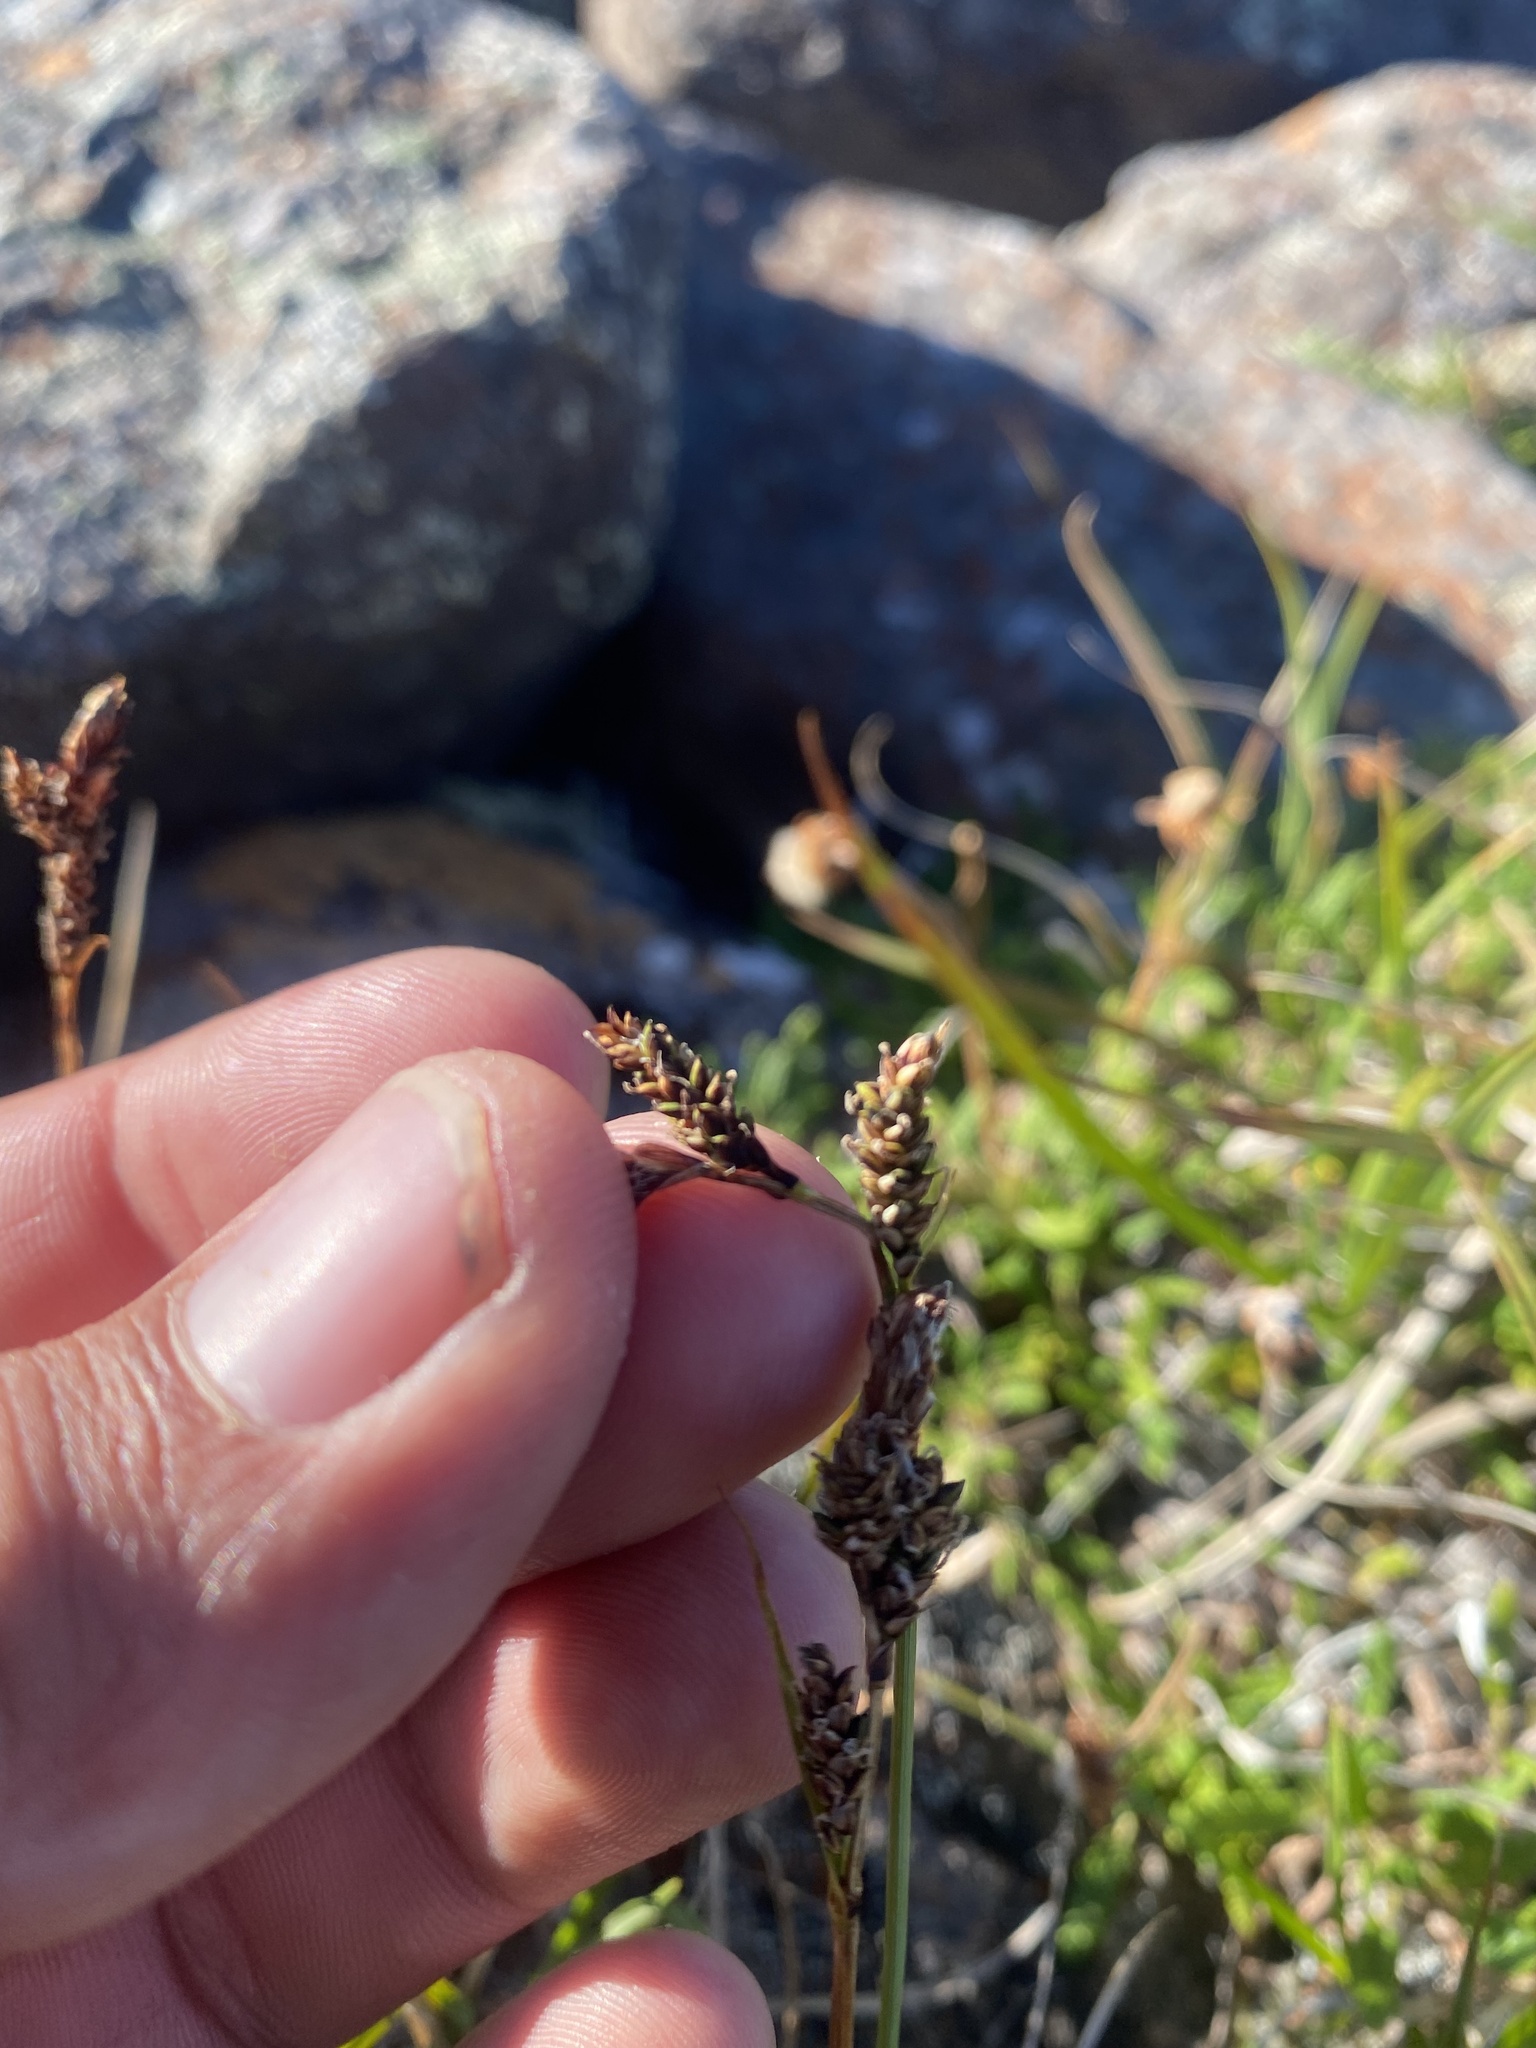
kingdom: Plantae
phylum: Tracheophyta
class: Liliopsida
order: Poales
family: Cyperaceae
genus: Carex
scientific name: Carex bigelowii
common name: Stiff sedge
